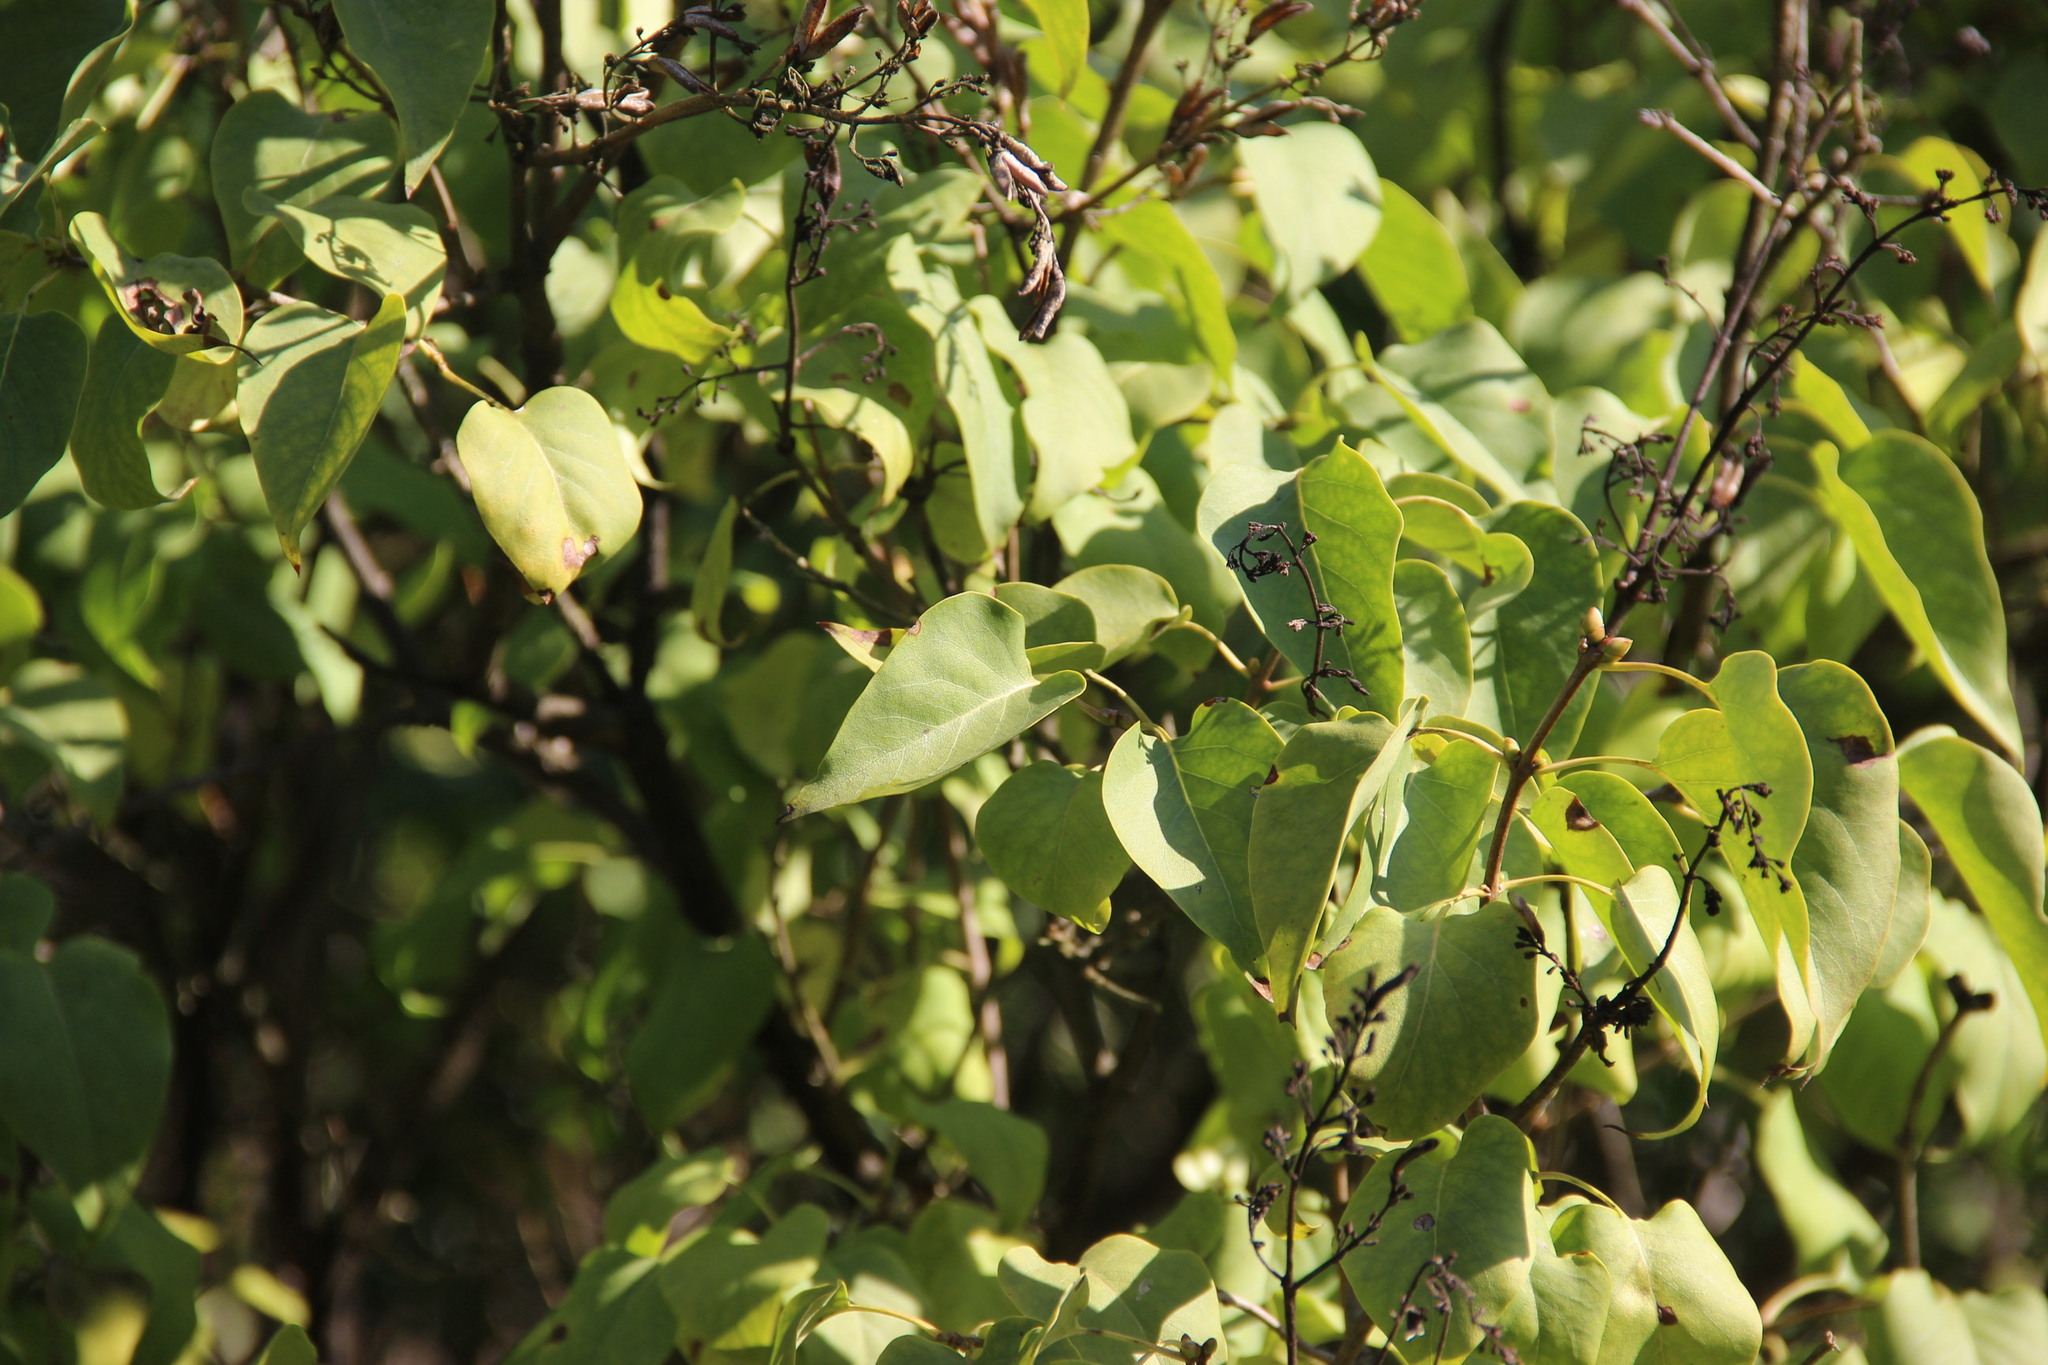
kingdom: Plantae
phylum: Tracheophyta
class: Magnoliopsida
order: Lamiales
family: Oleaceae
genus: Syringa
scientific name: Syringa vulgaris
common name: Common lilac
